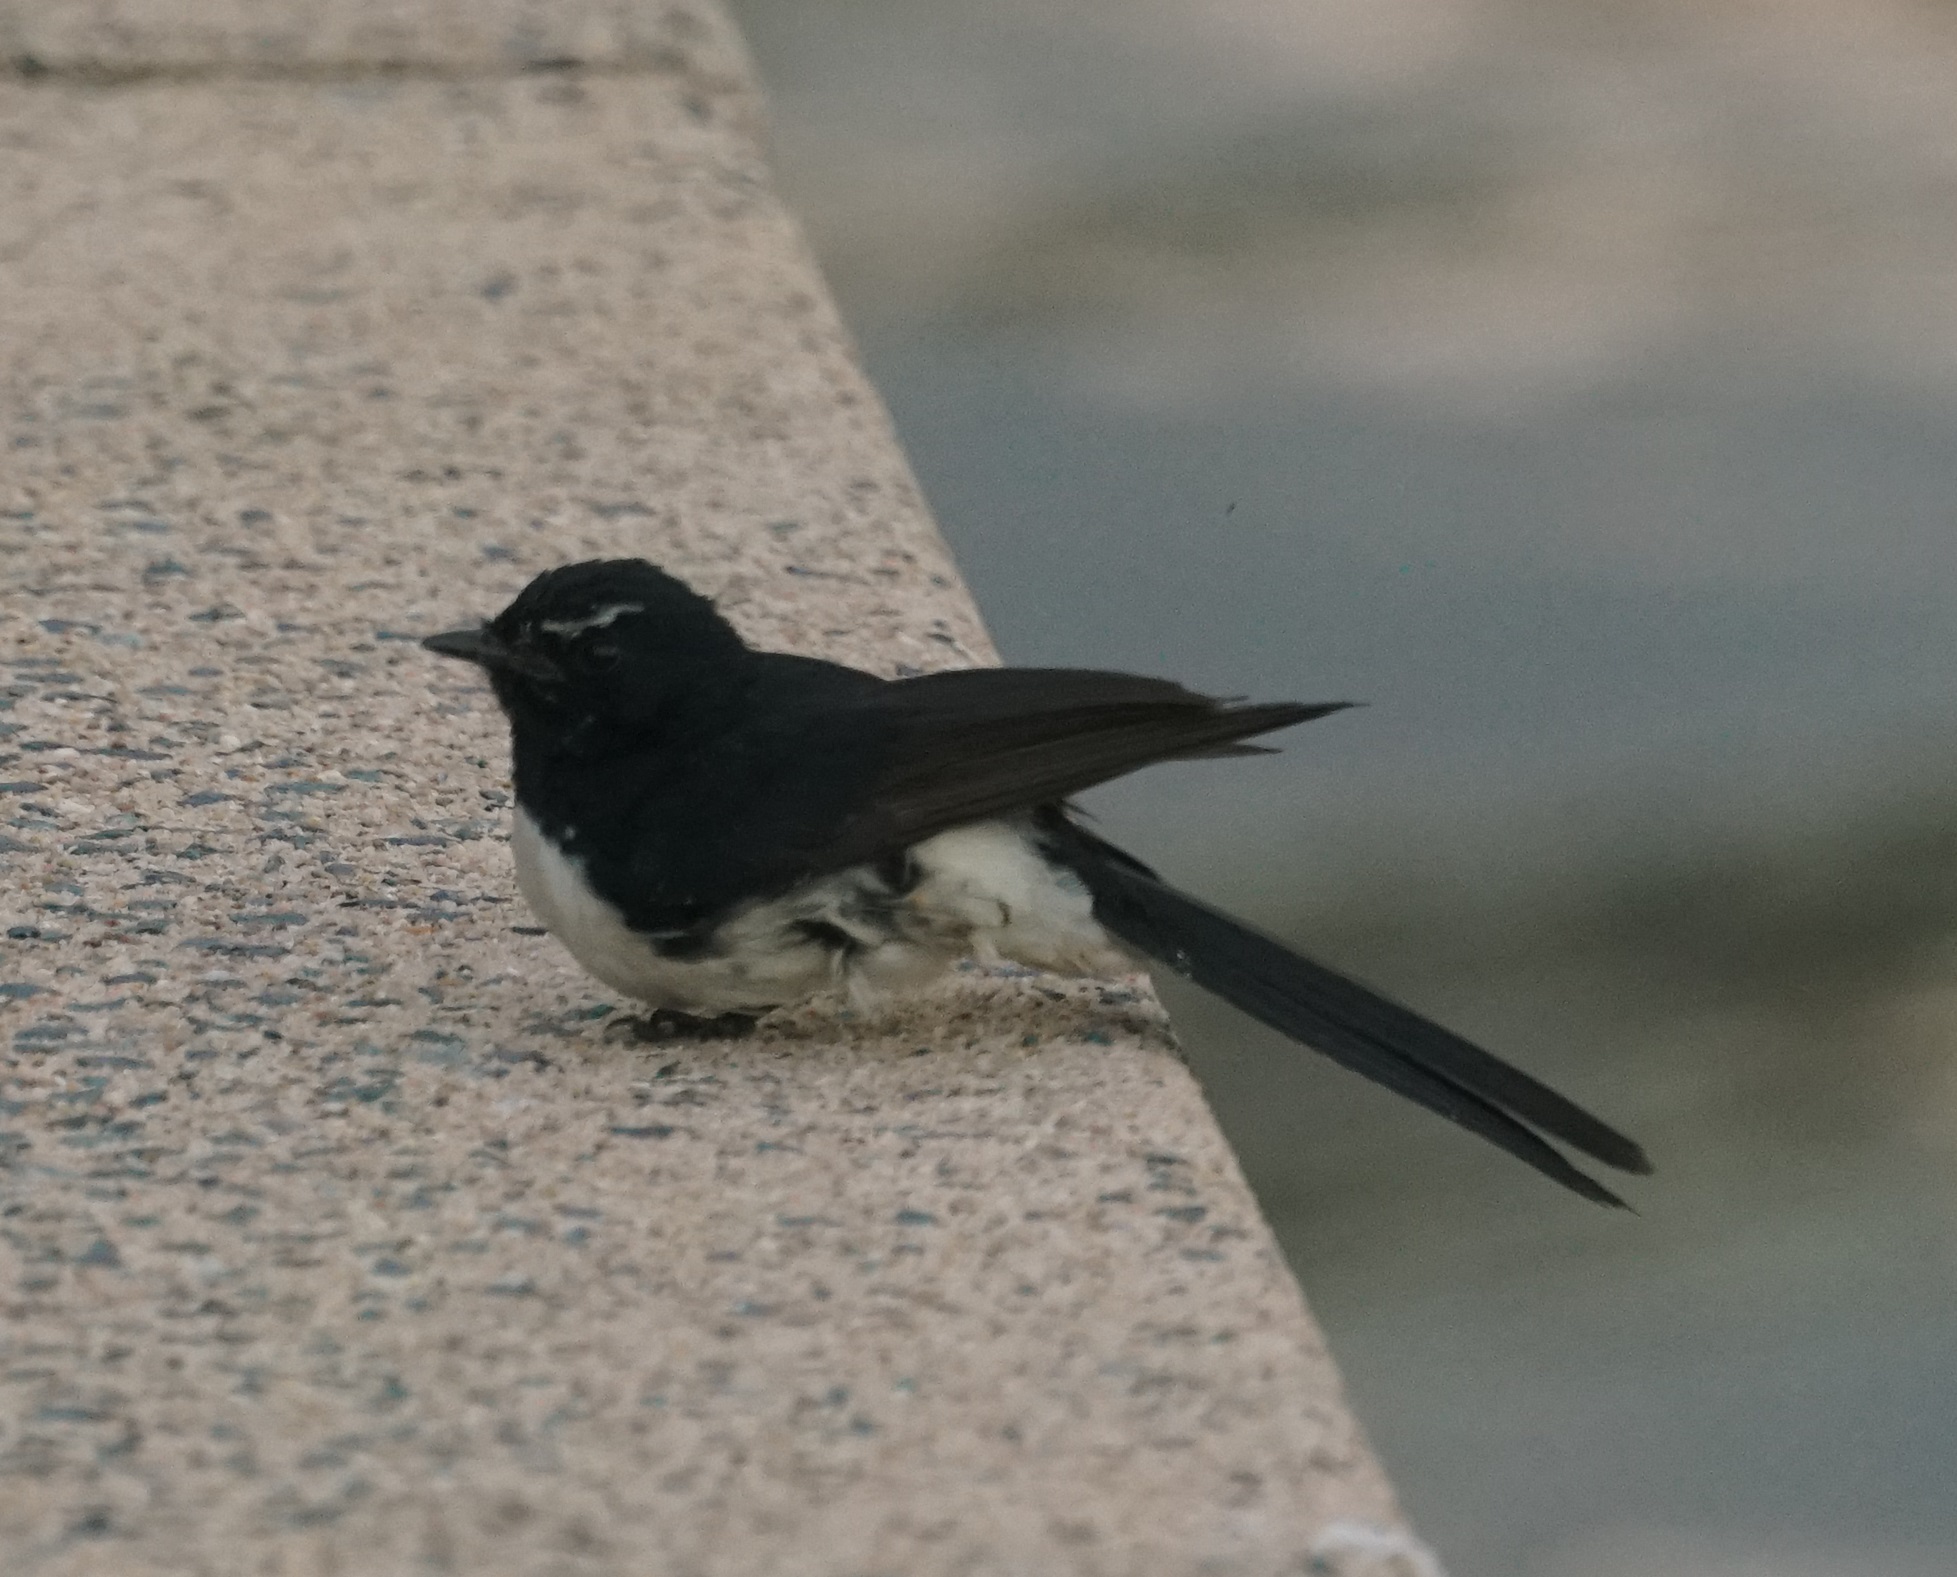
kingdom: Animalia
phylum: Chordata
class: Aves
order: Passeriformes
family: Rhipiduridae
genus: Rhipidura
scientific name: Rhipidura leucophrys
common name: Willie wagtail
